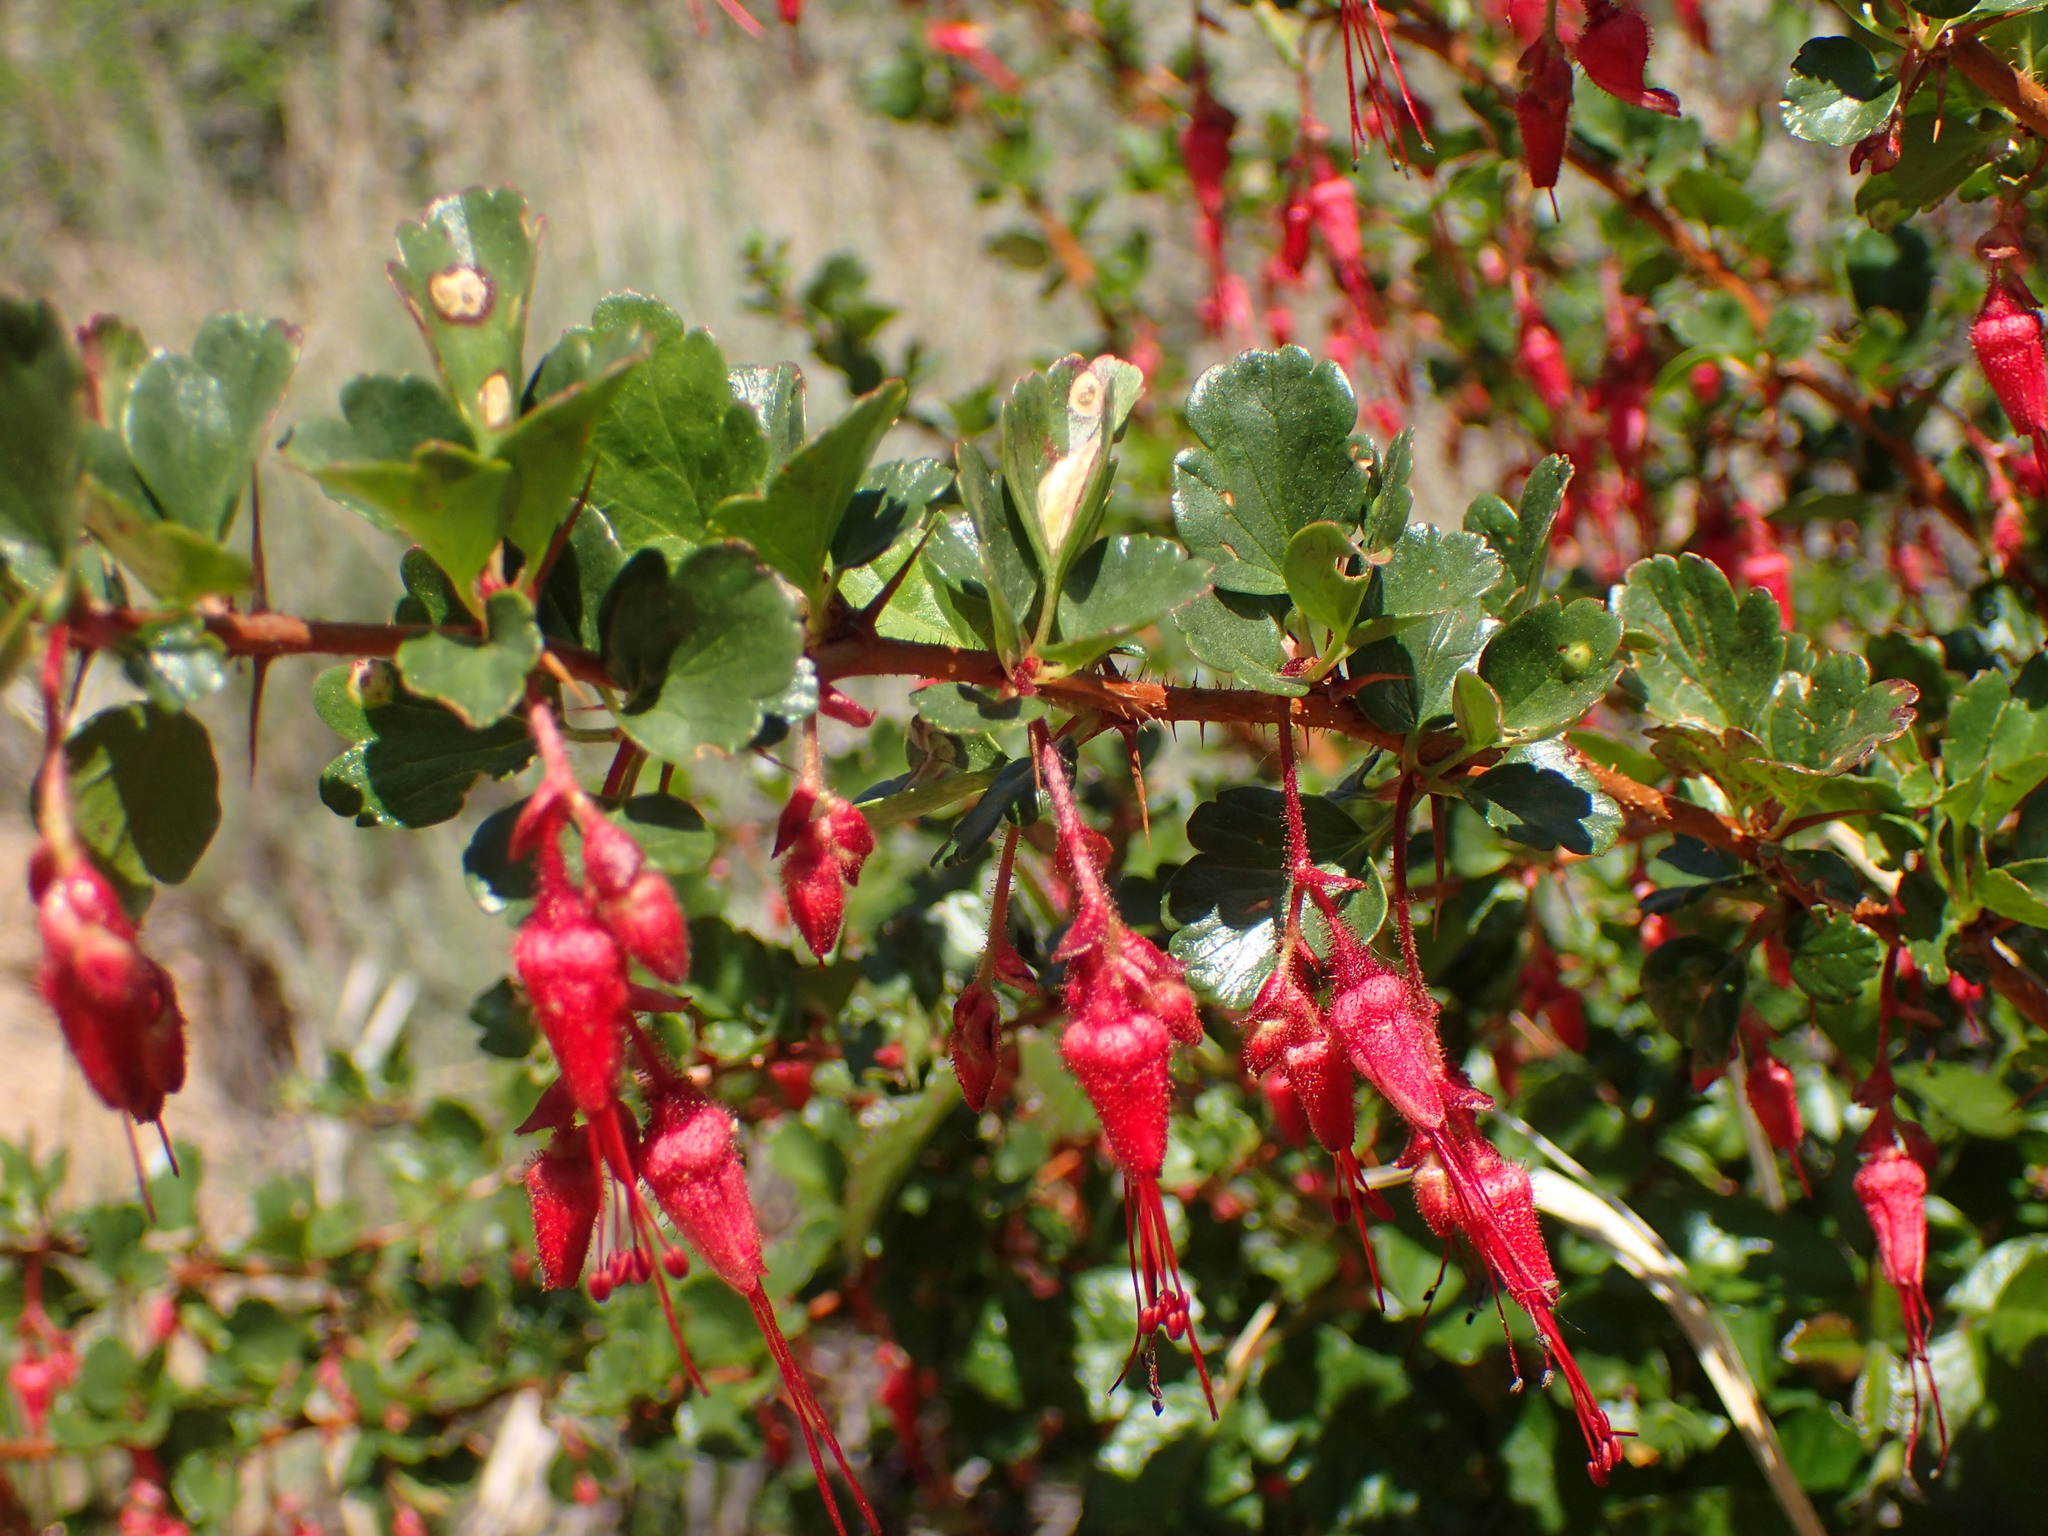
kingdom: Plantae
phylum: Tracheophyta
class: Magnoliopsida
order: Saxifragales
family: Grossulariaceae
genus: Ribes
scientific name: Ribes speciosum
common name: Fuchsia-flower gooseberry
